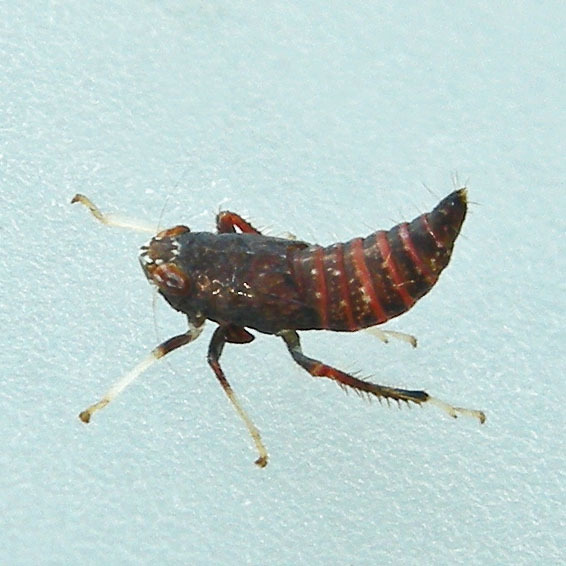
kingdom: Animalia
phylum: Arthropoda
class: Insecta
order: Hemiptera
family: Cicadellidae
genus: Orientus
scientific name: Orientus ishidae
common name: Japanese leafhopper
